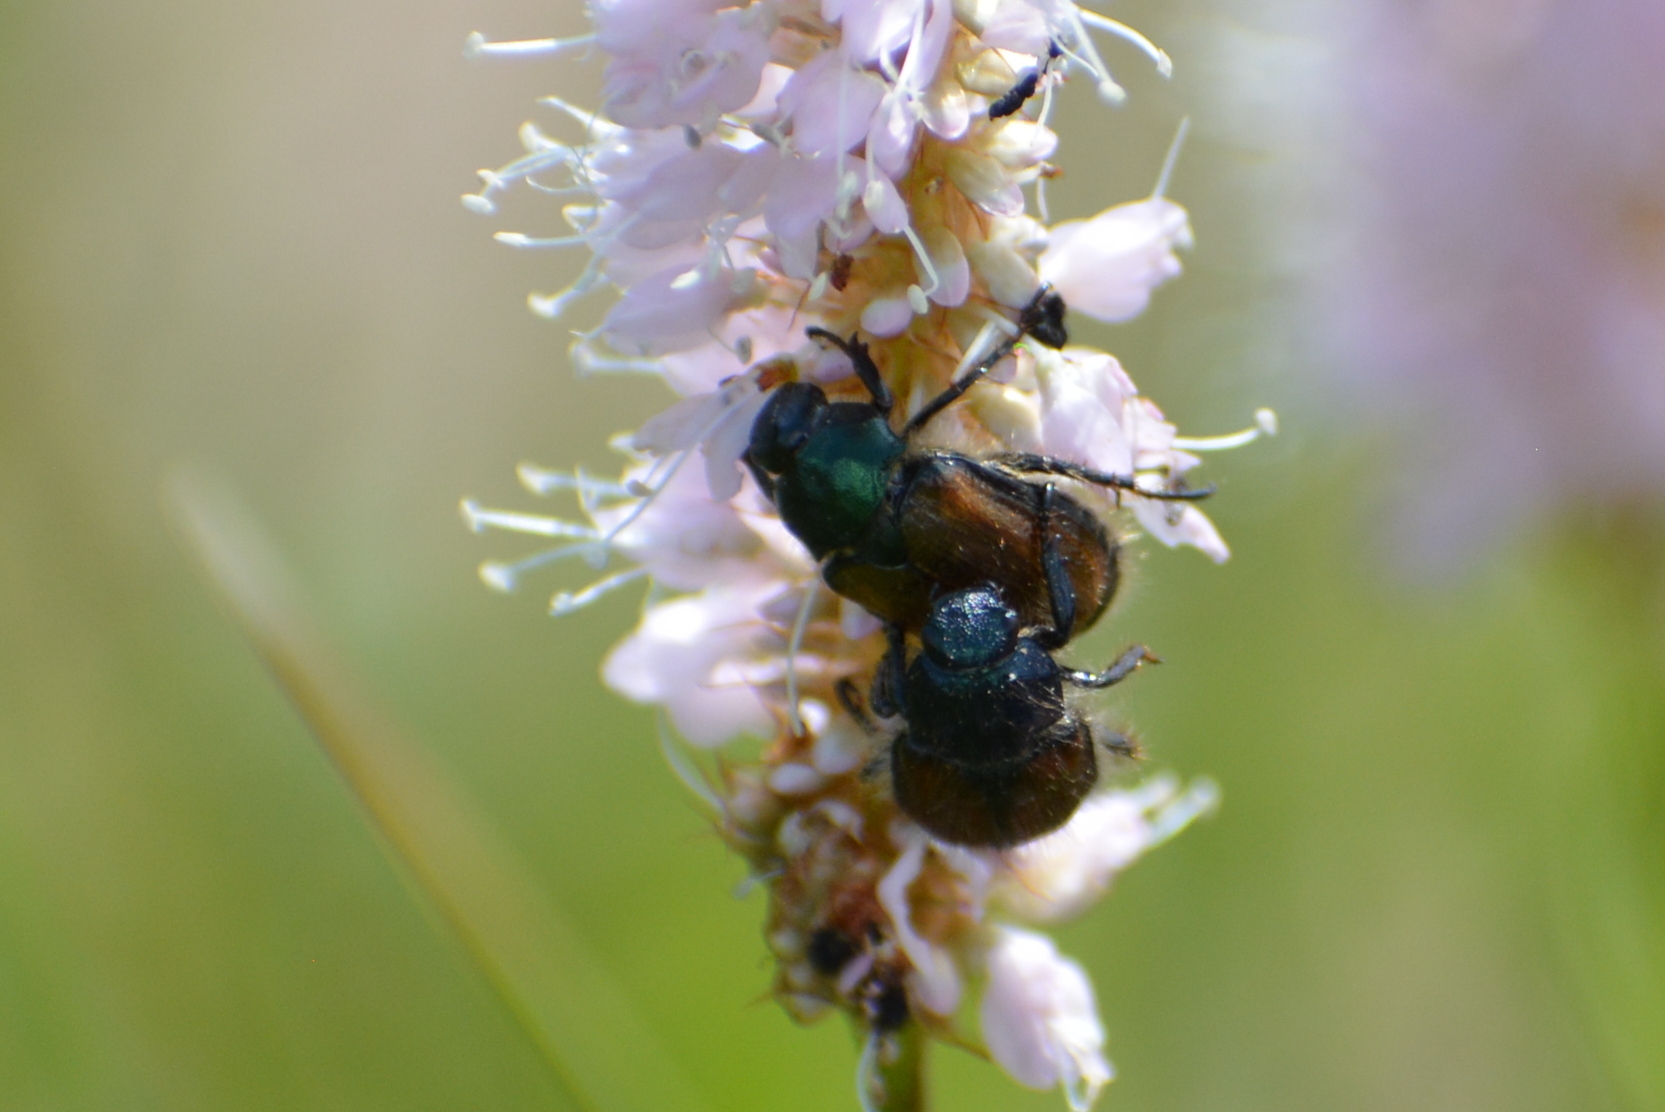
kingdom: Animalia
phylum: Arthropoda
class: Insecta
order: Coleoptera
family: Scarabaeidae
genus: Phyllopertha
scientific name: Phyllopertha horticola
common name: Garden chafer
